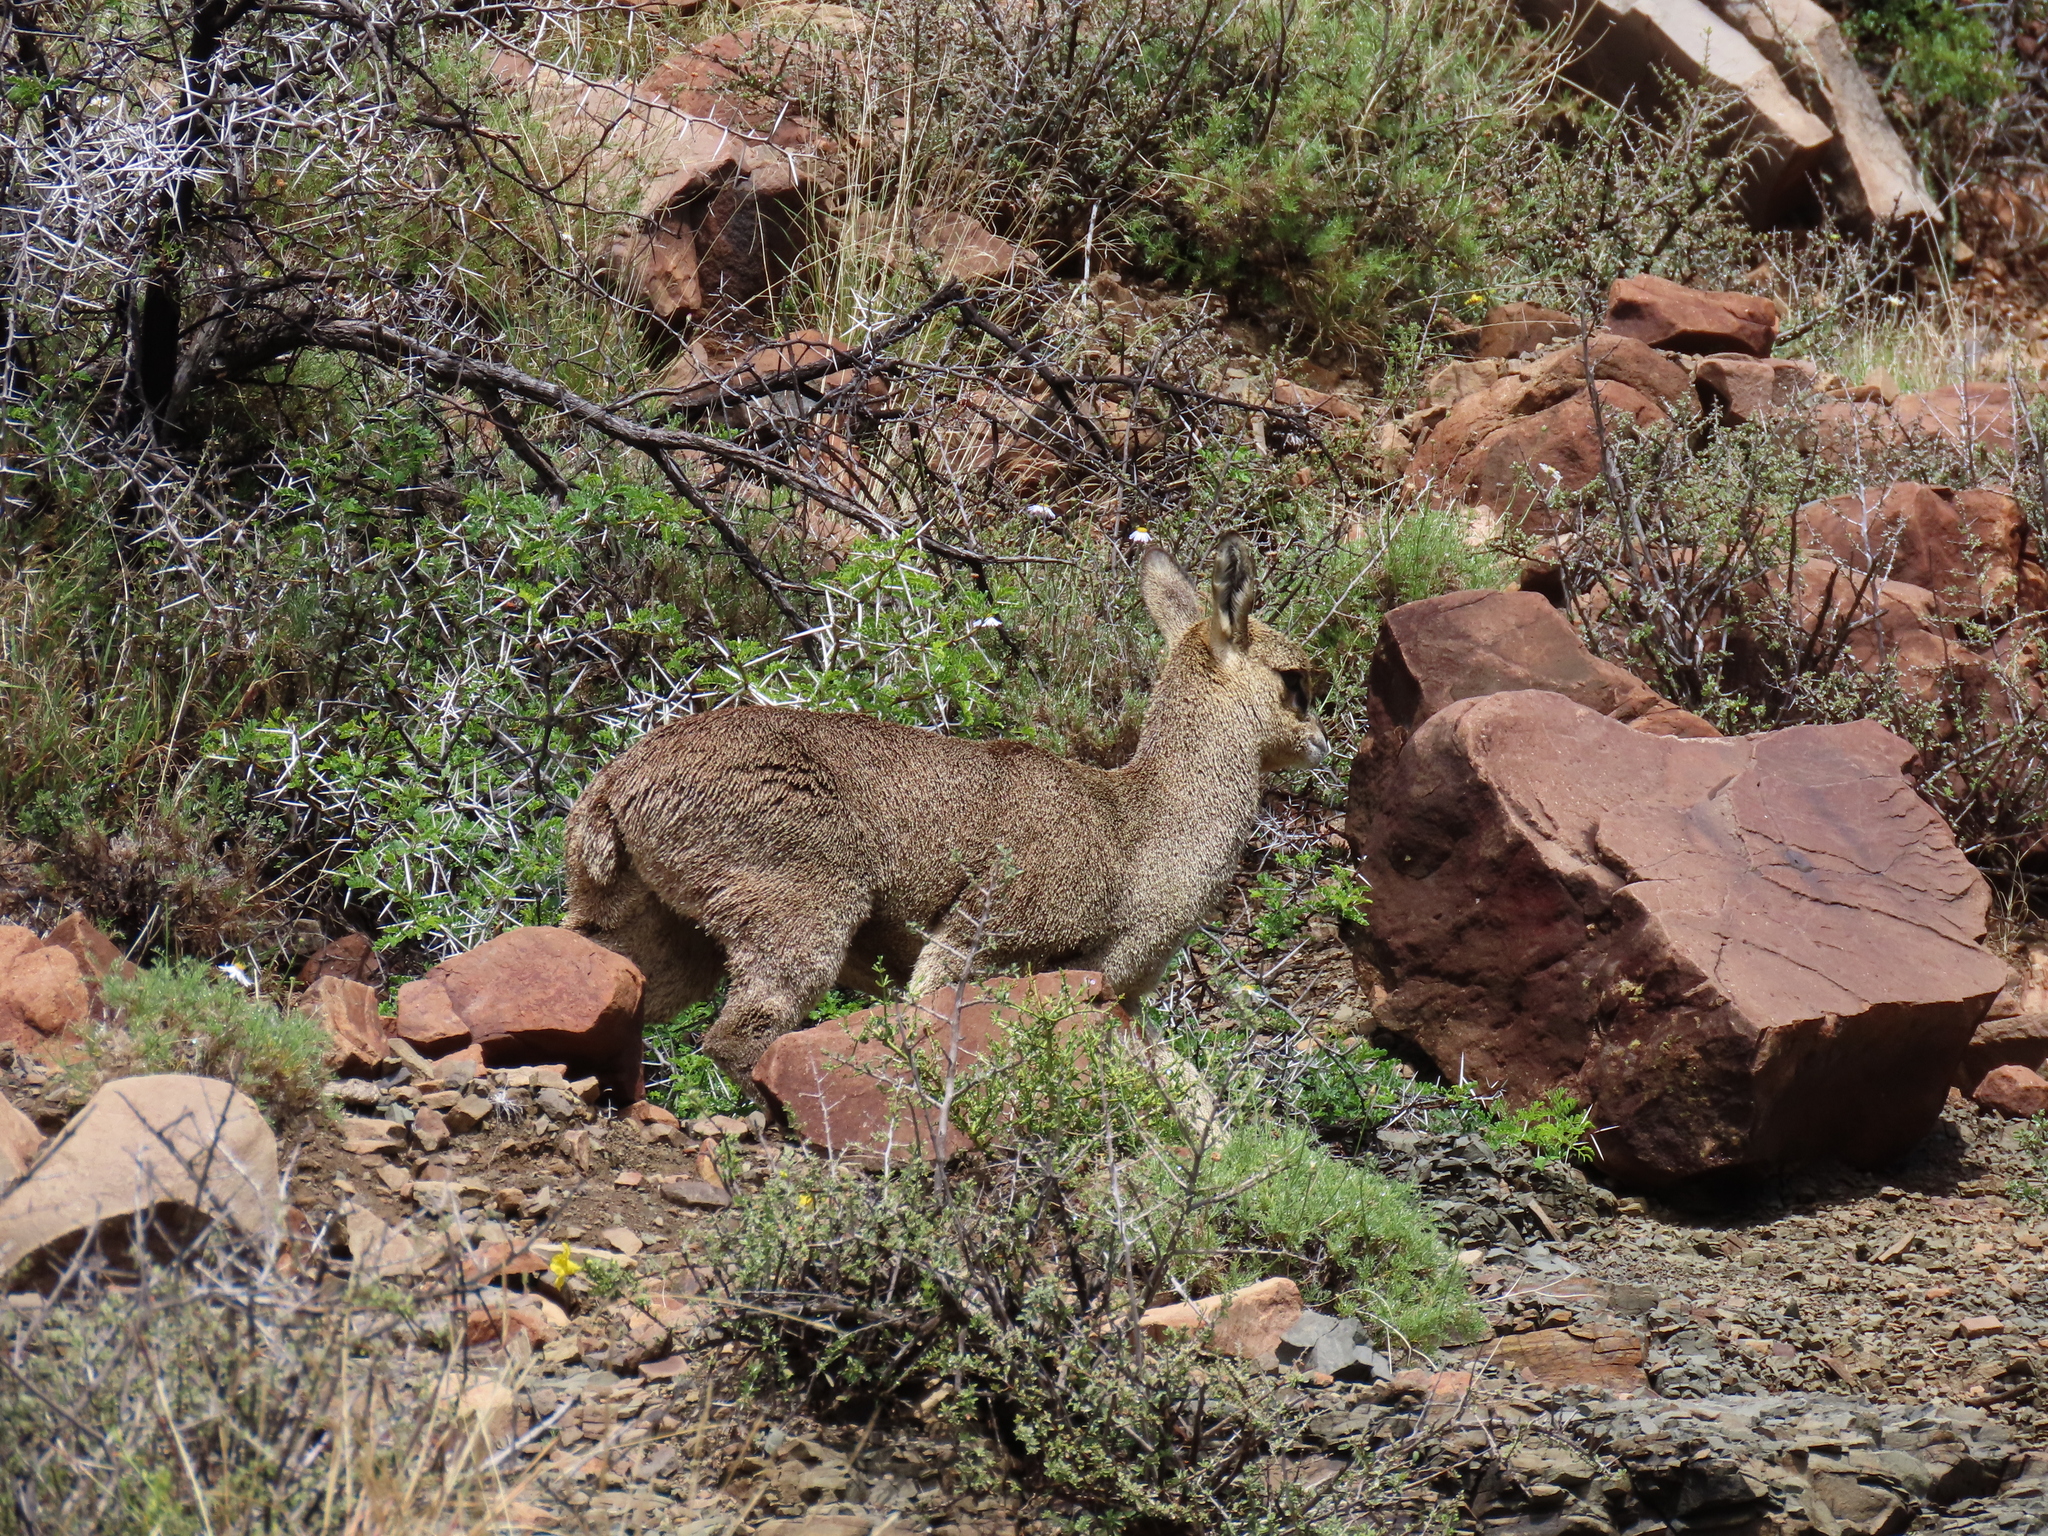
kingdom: Animalia
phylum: Chordata
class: Mammalia
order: Artiodactyla
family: Bovidae
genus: Oreotragus
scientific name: Oreotragus oreotragus
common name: Klipspringer
